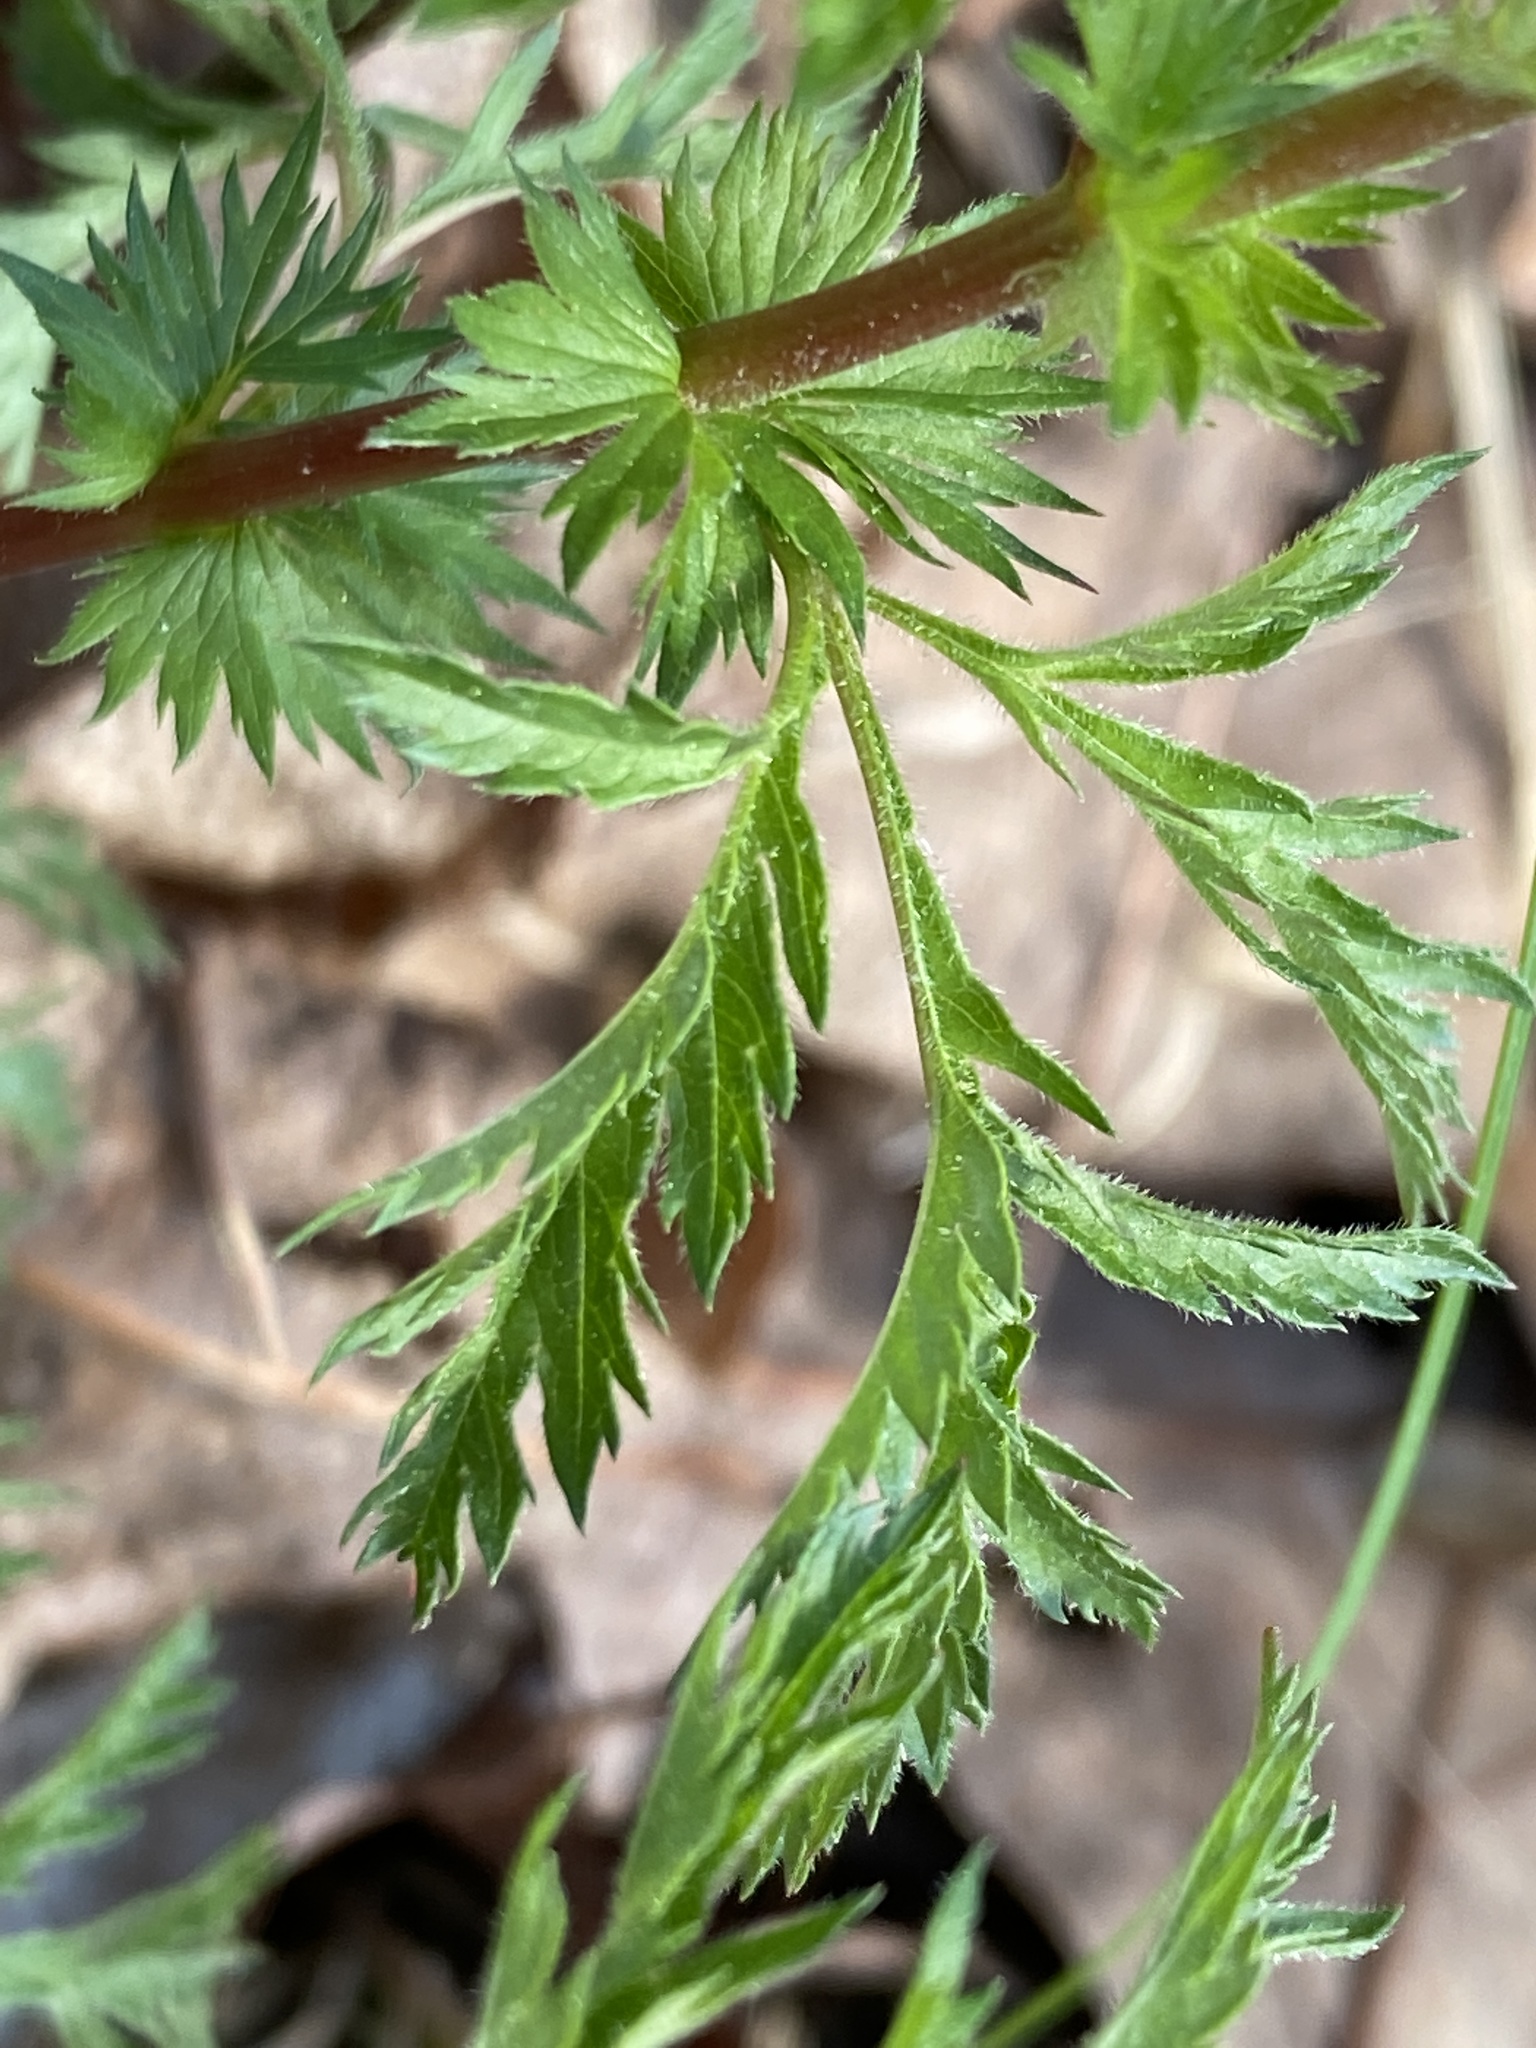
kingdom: Plantae
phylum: Tracheophyta
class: Magnoliopsida
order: Rosales
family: Rosaceae
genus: Gillenia
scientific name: Gillenia stipulata
